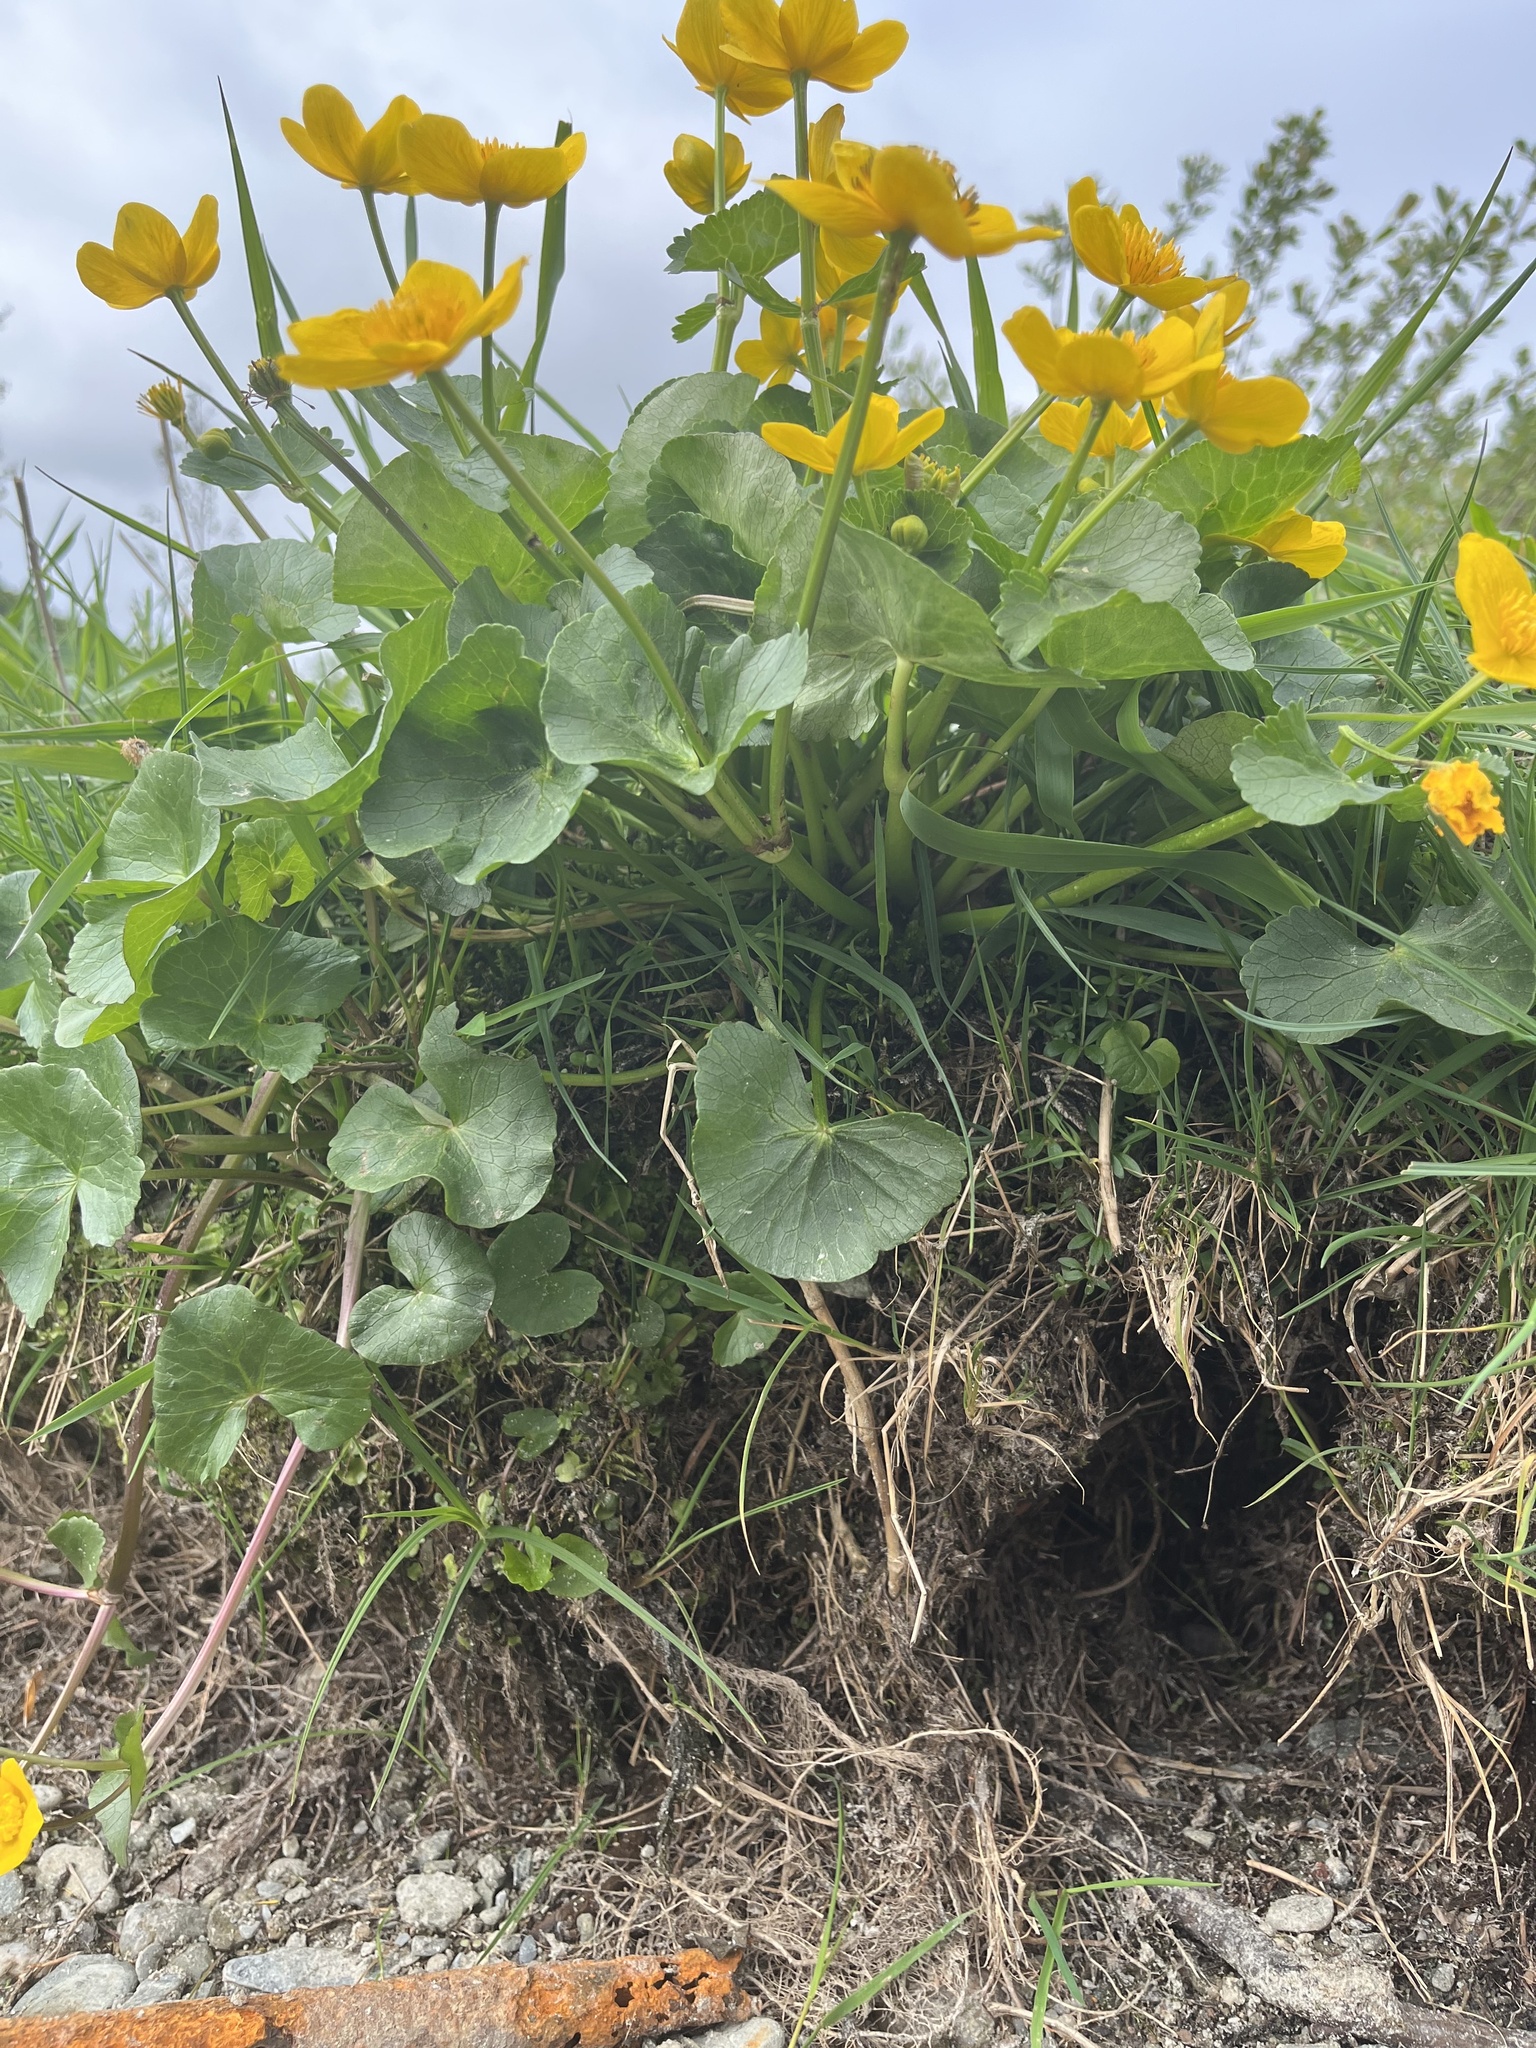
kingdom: Plantae
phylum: Tracheophyta
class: Magnoliopsida
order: Ranunculales
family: Ranunculaceae
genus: Caltha
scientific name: Caltha palustris
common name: Marsh marigold
